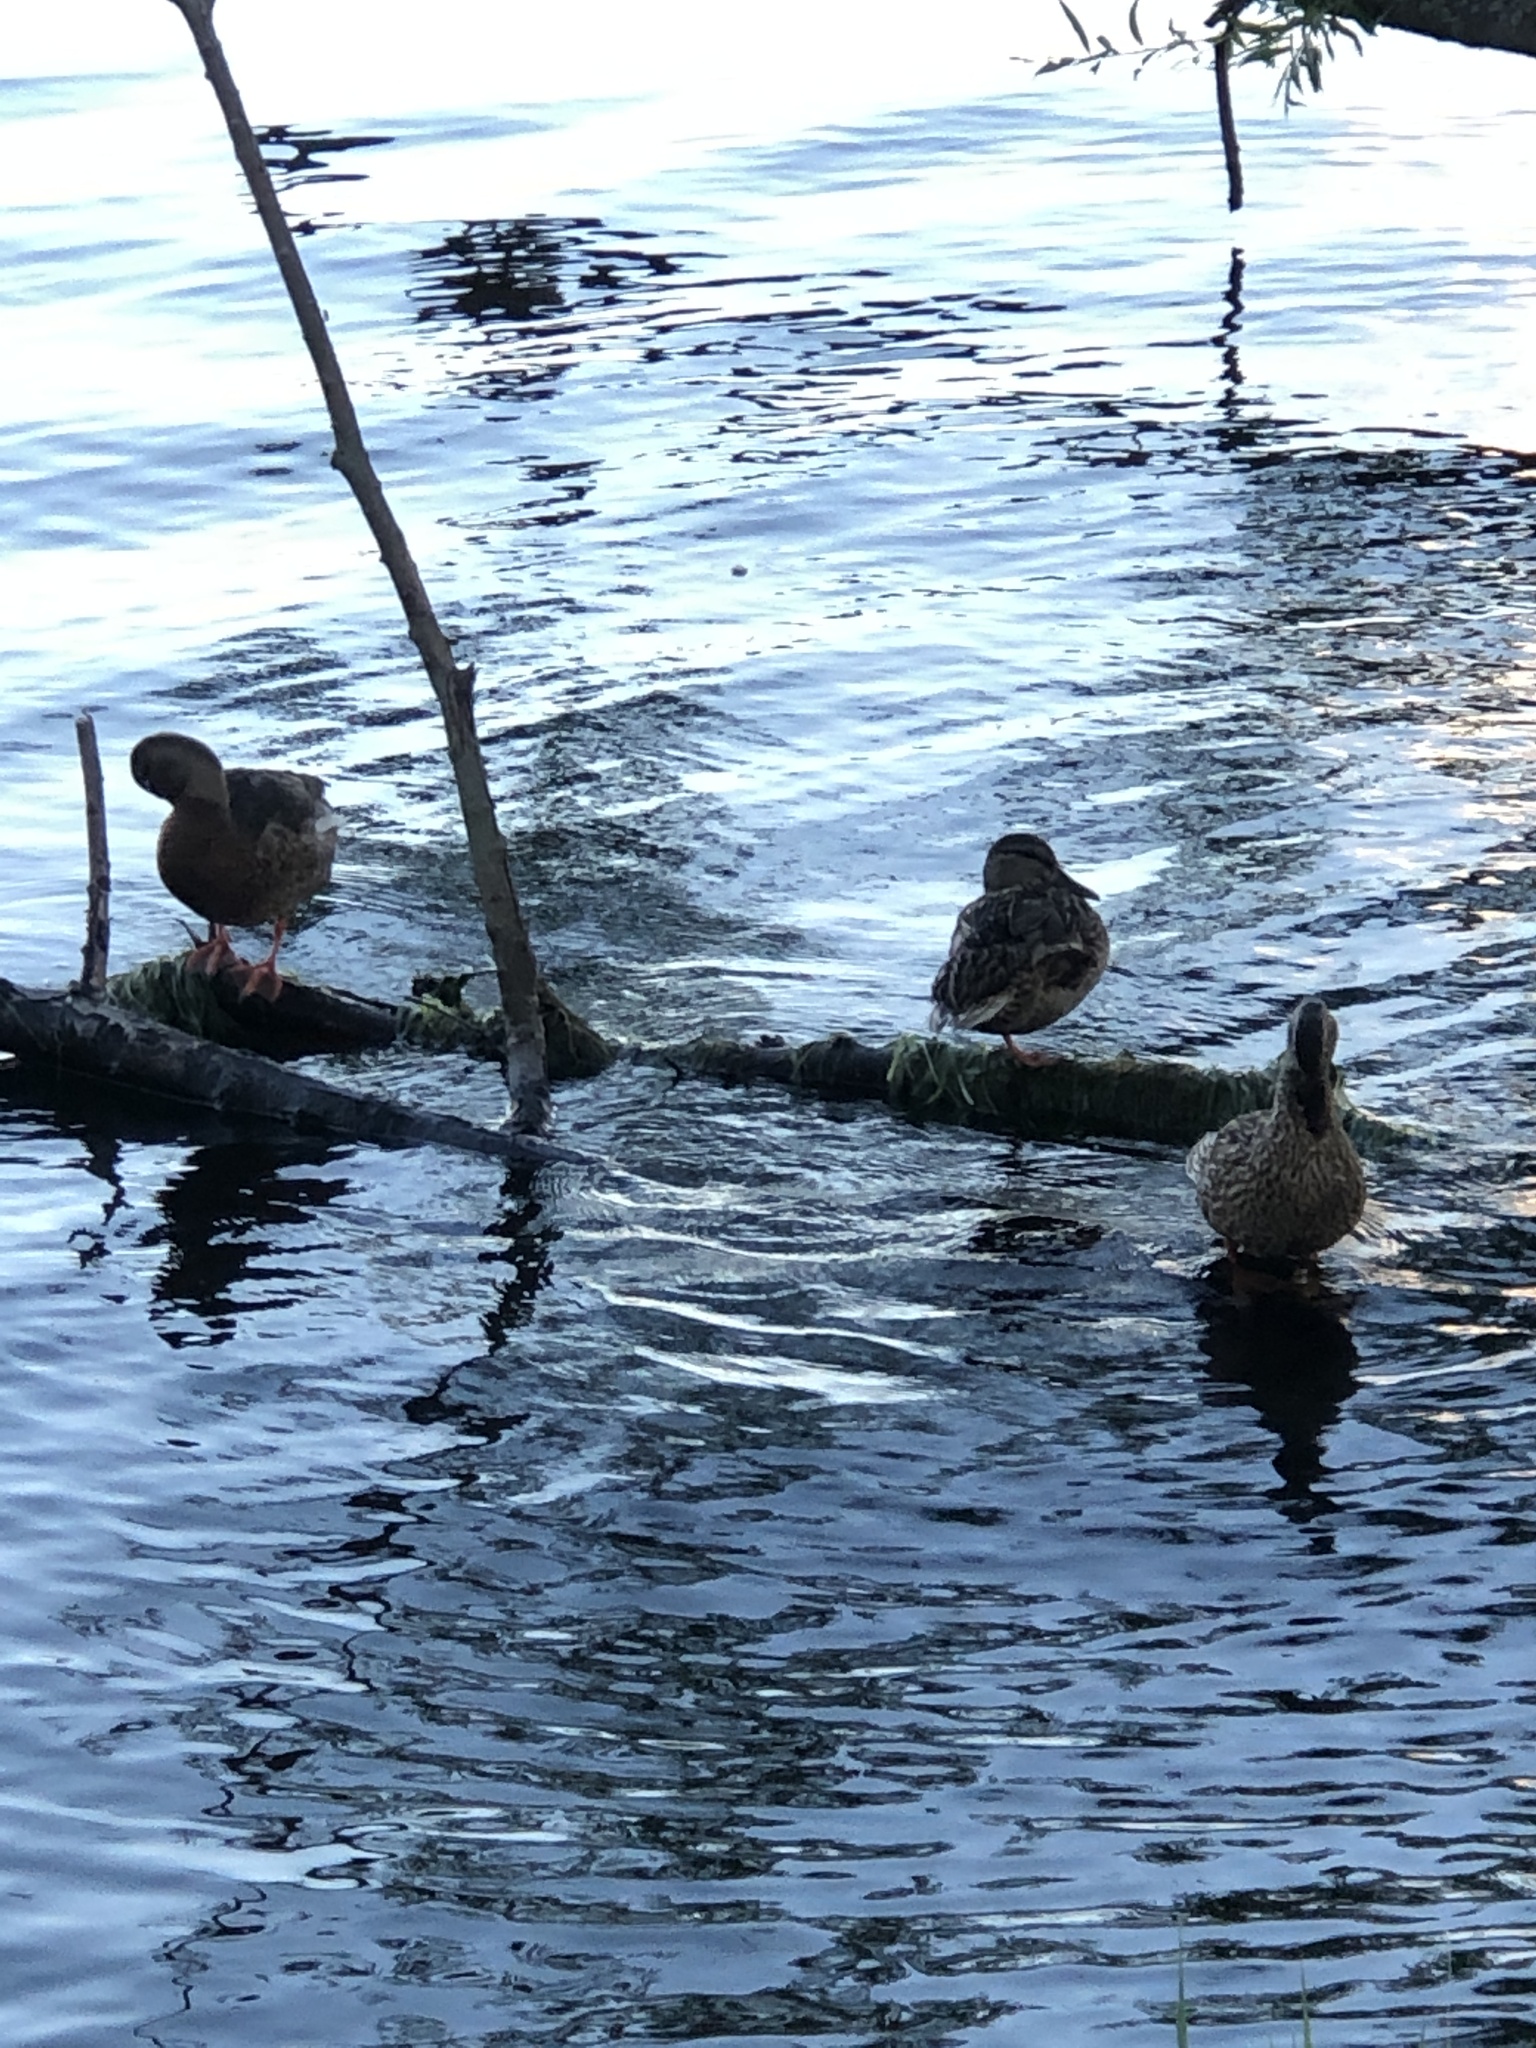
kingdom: Animalia
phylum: Chordata
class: Aves
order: Anseriformes
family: Anatidae
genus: Anas
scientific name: Anas platyrhynchos
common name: Mallard
